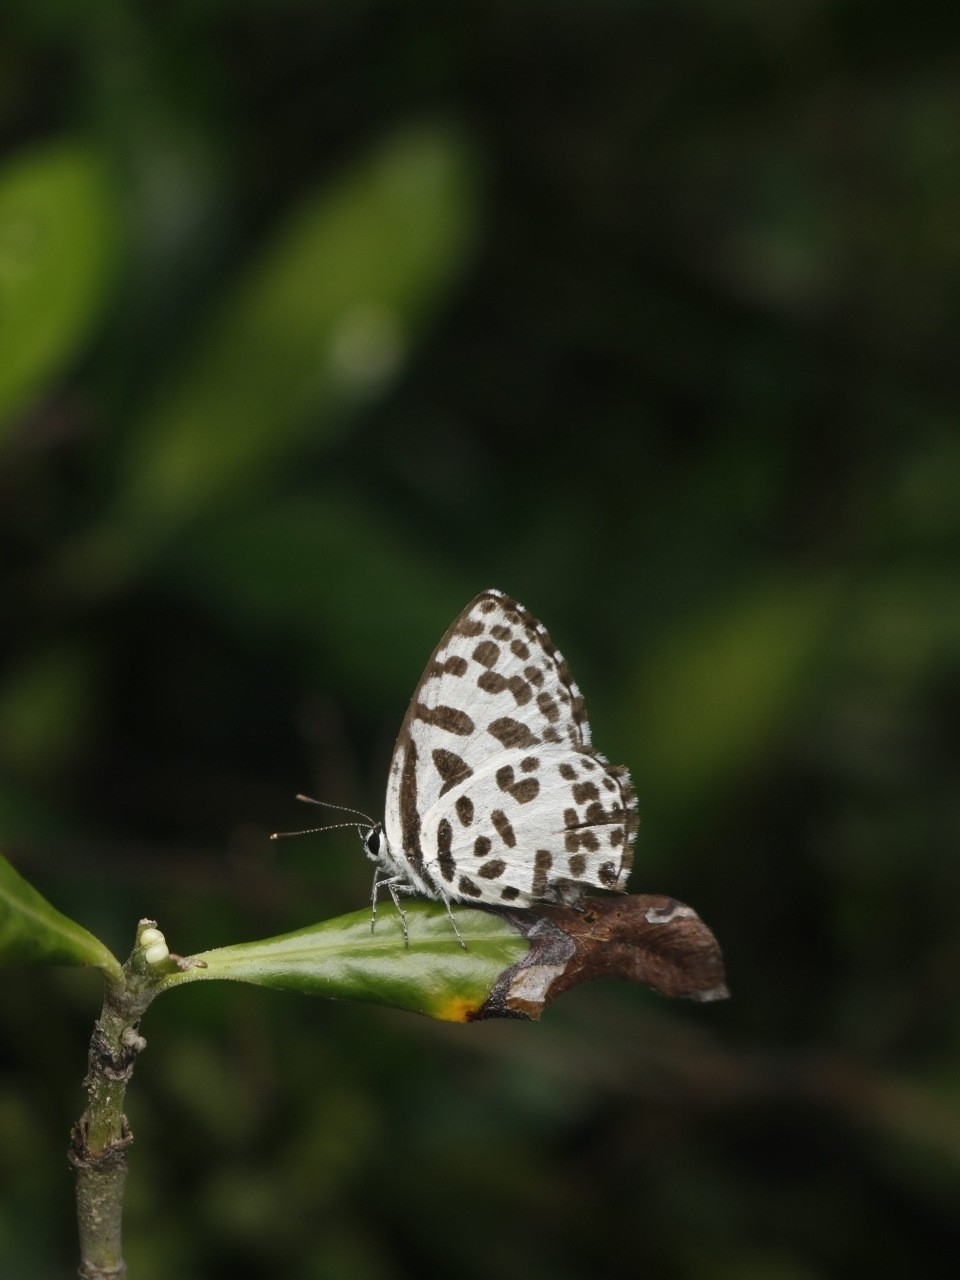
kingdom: Animalia
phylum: Arthropoda
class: Insecta
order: Lepidoptera
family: Lycaenidae
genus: Castalius
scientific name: Castalius rosimon
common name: Common pierrot
